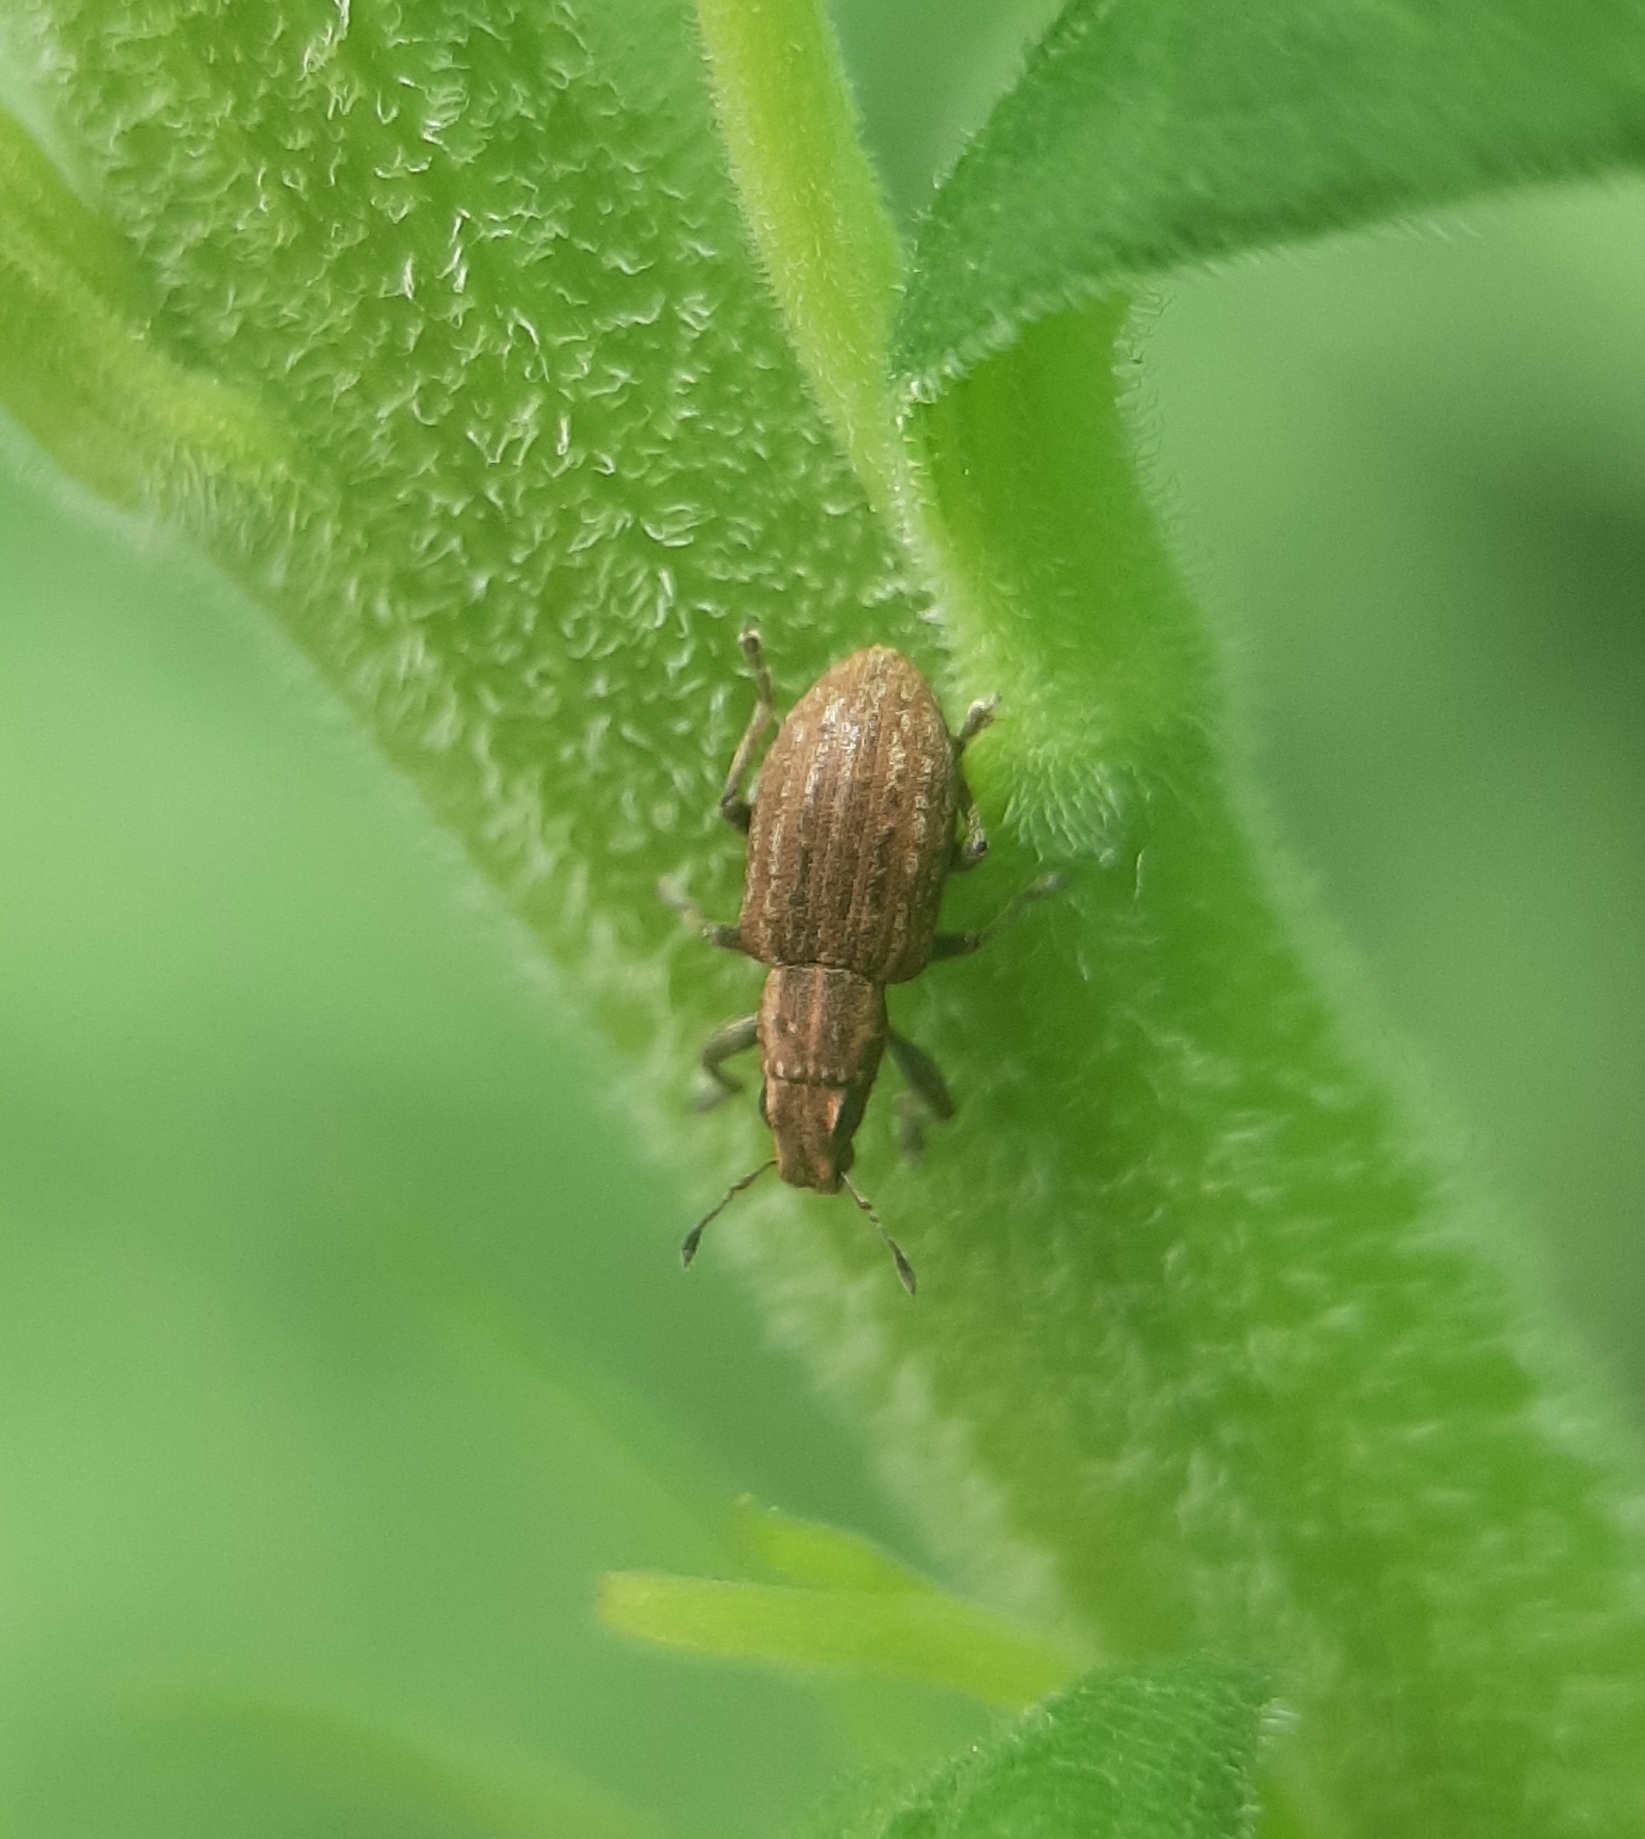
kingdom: Animalia
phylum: Arthropoda
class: Insecta
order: Coleoptera
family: Curculionidae
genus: Sitona
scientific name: Sitona obsoletus
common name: Weevil
